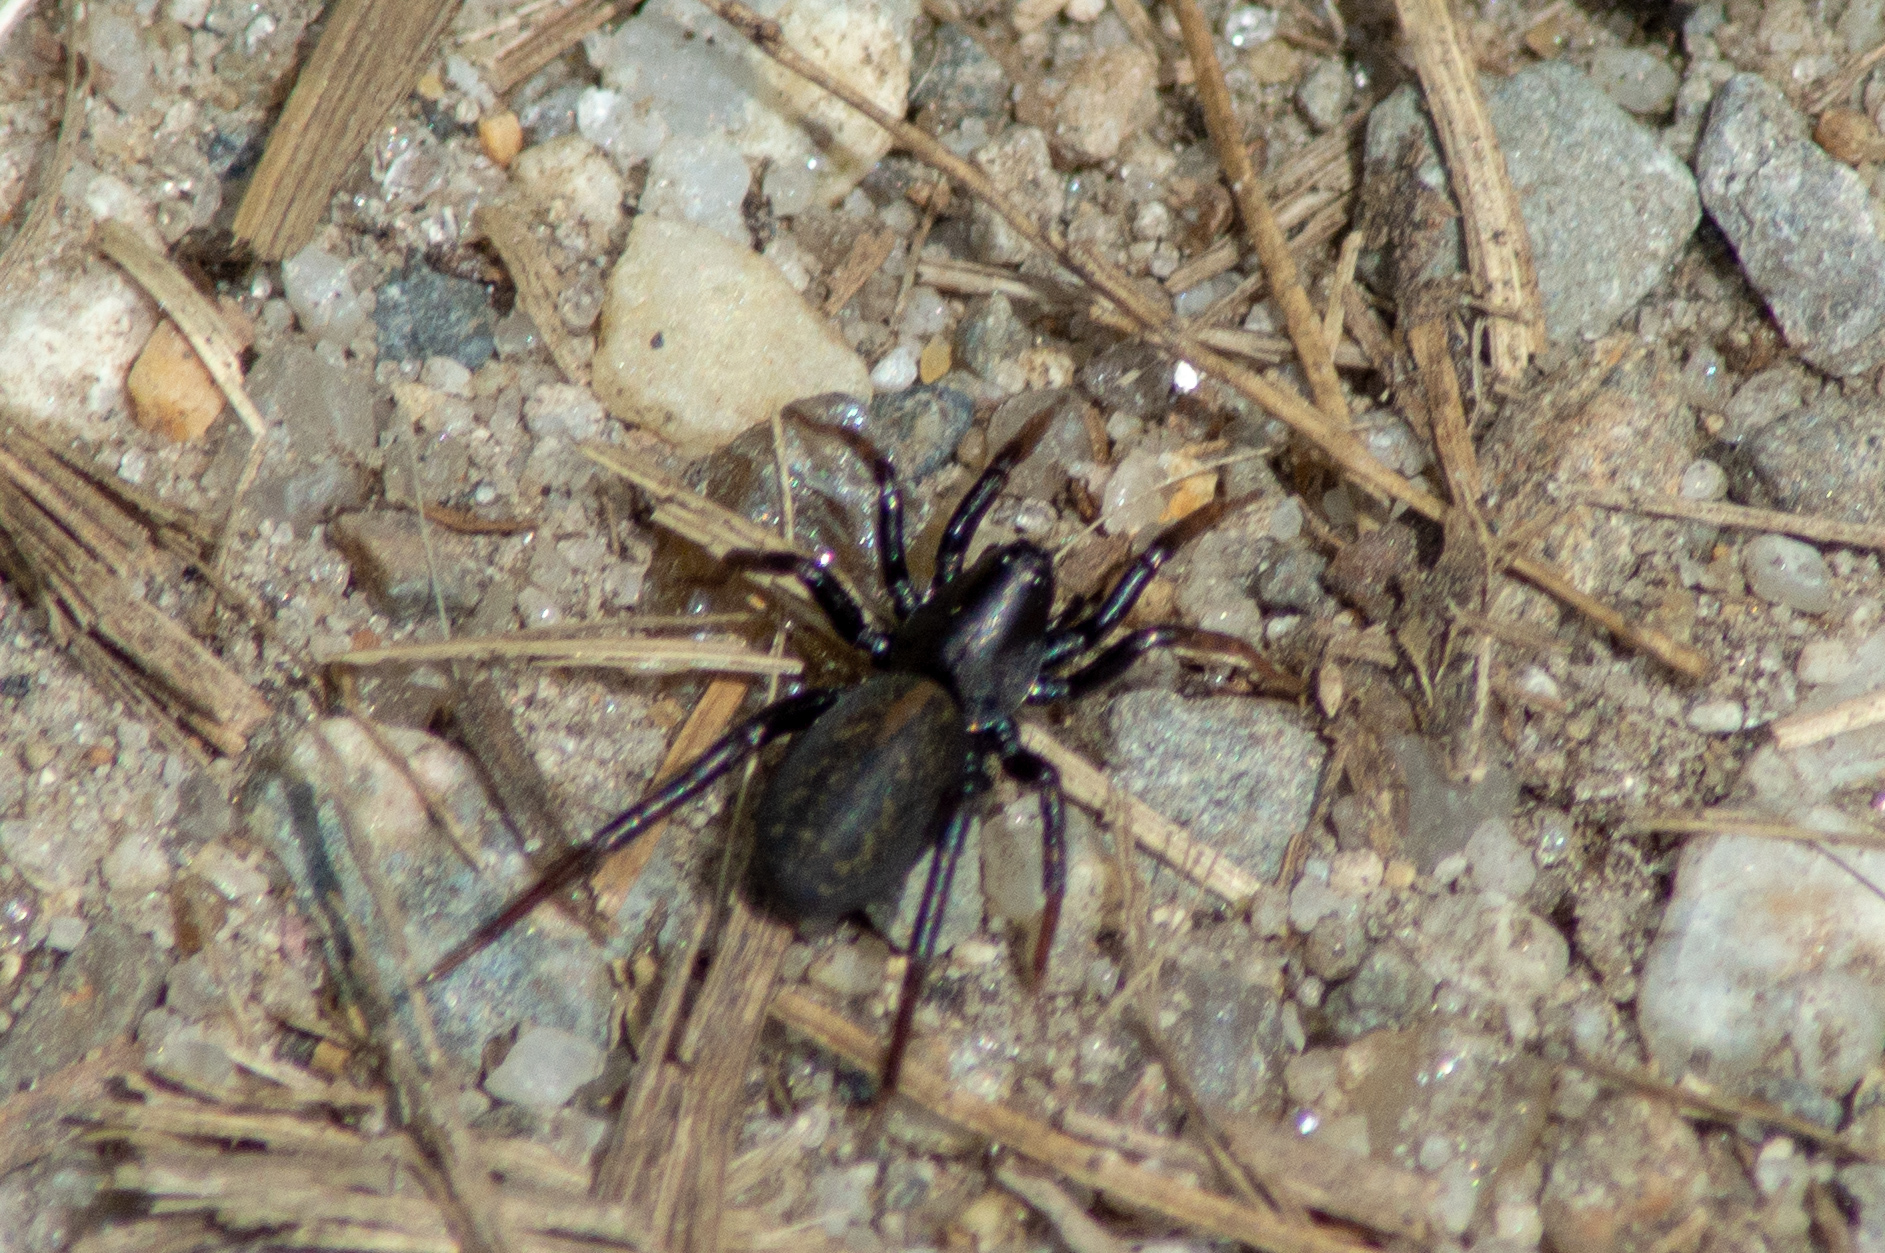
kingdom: Animalia
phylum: Arthropoda
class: Arachnida
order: Araneae
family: Lycosidae
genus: Allocosa
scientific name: Allocosa
